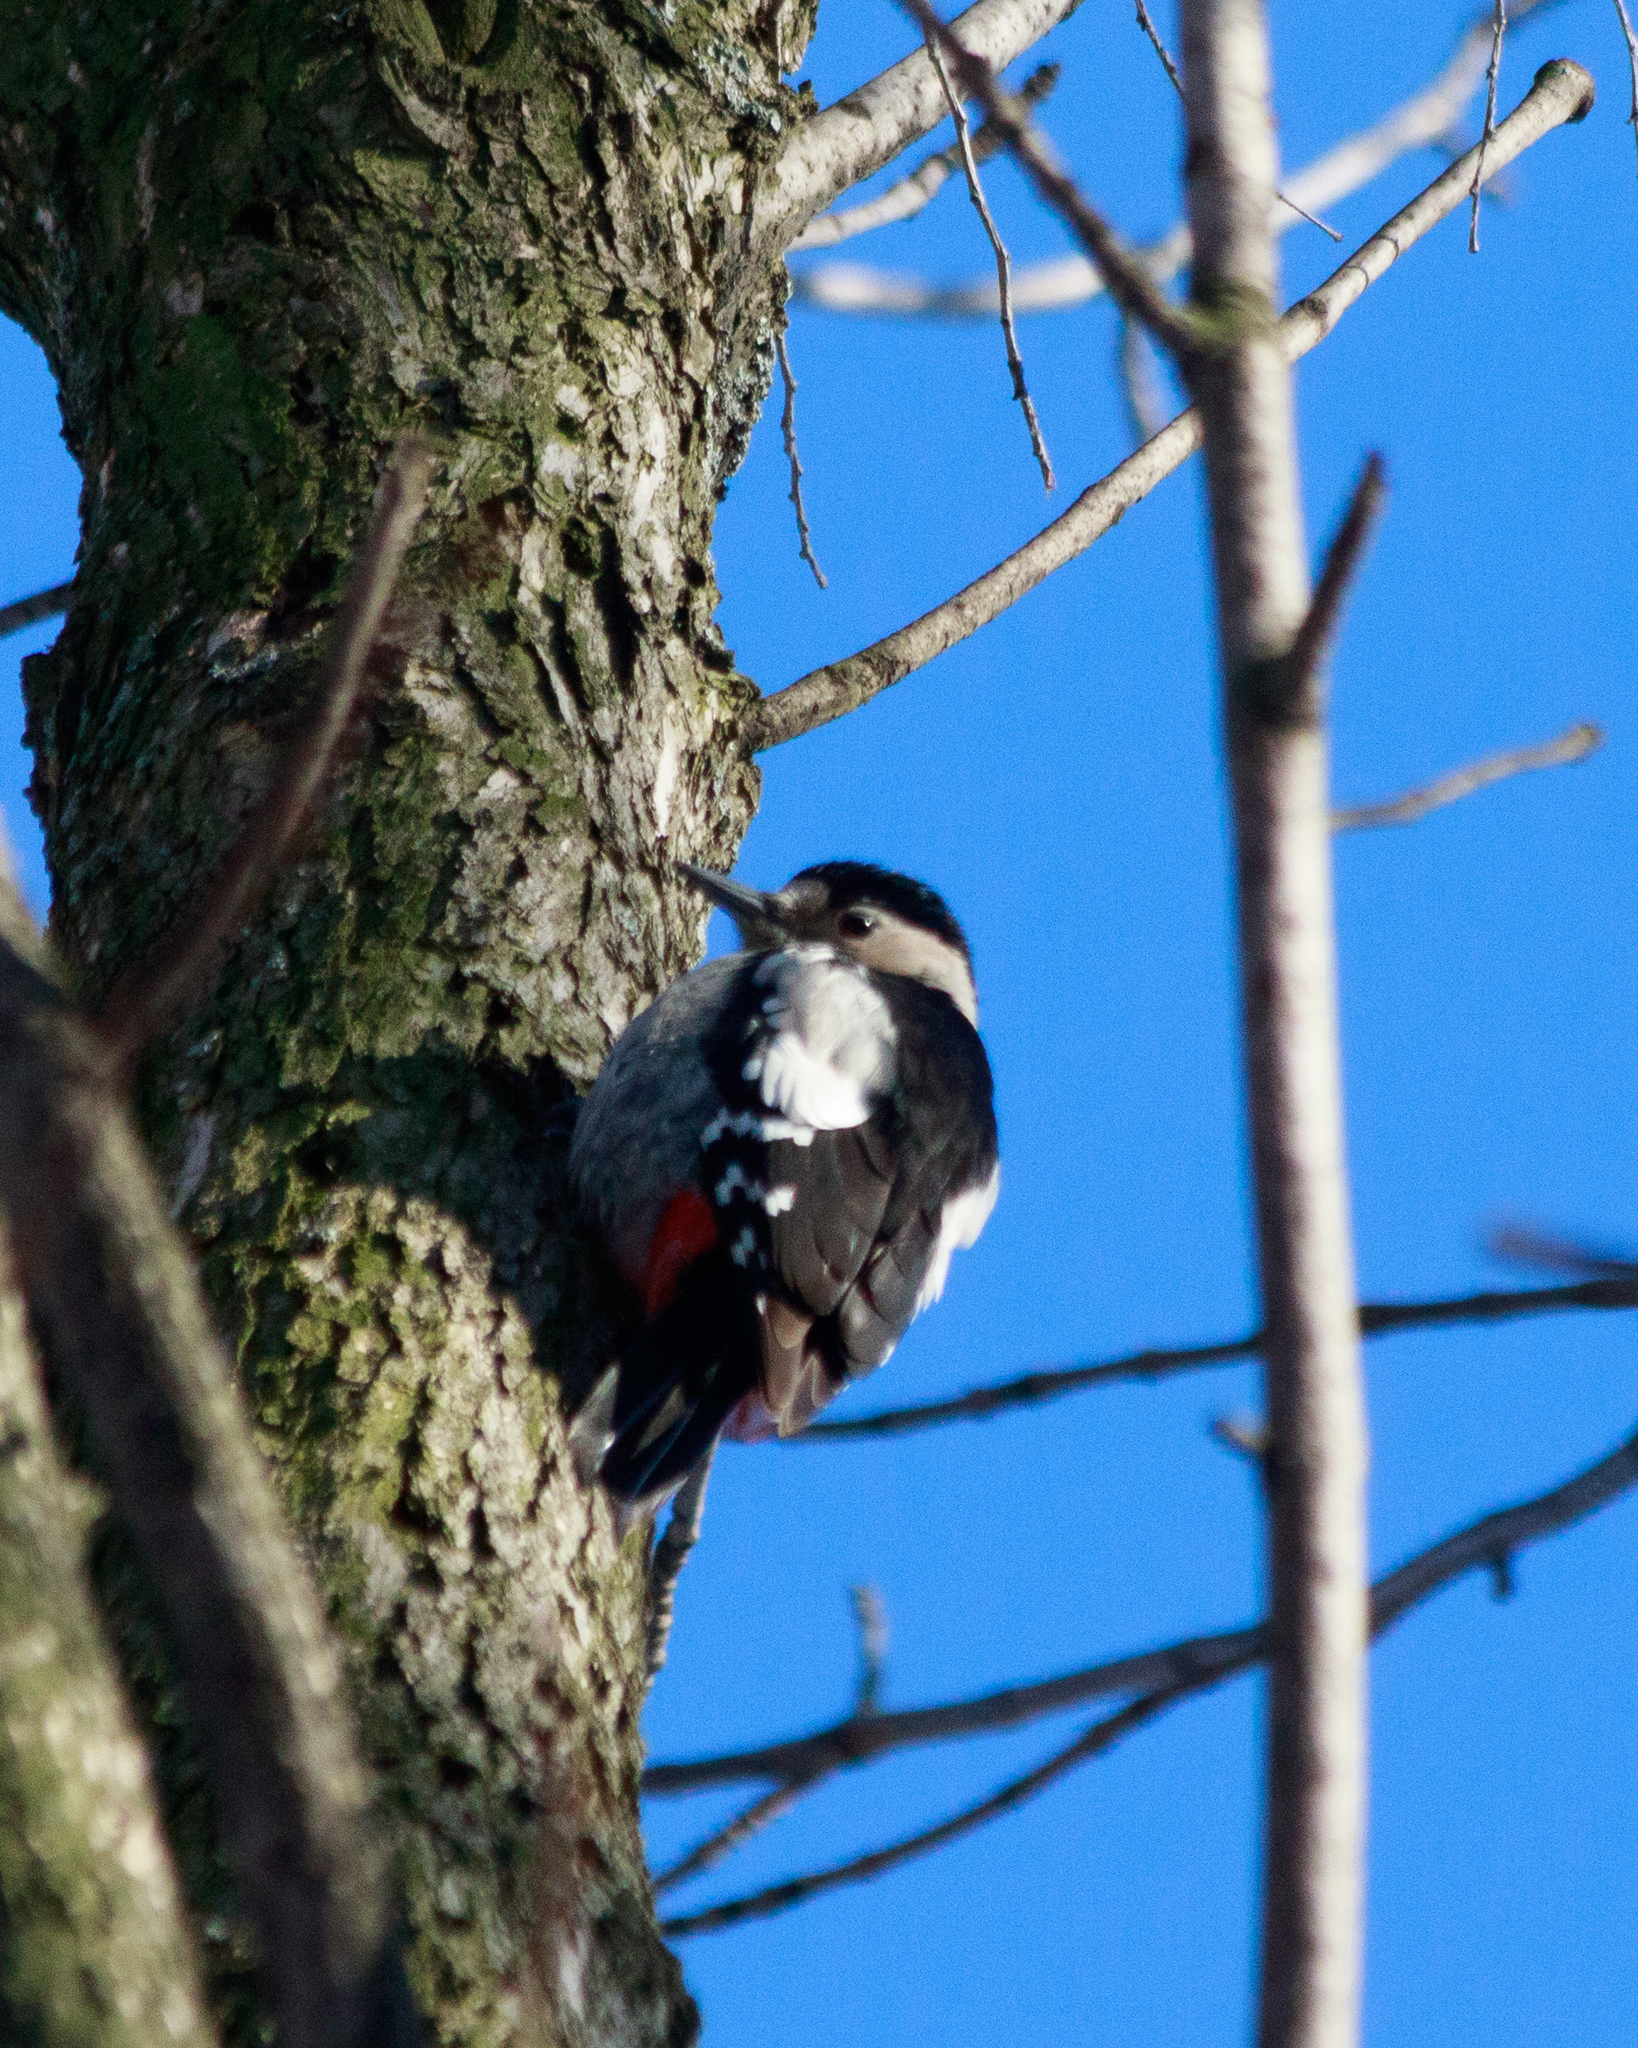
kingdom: Animalia
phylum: Chordata
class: Aves
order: Piciformes
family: Picidae
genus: Dendrocopos
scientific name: Dendrocopos syriacus
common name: Syrian woodpecker
